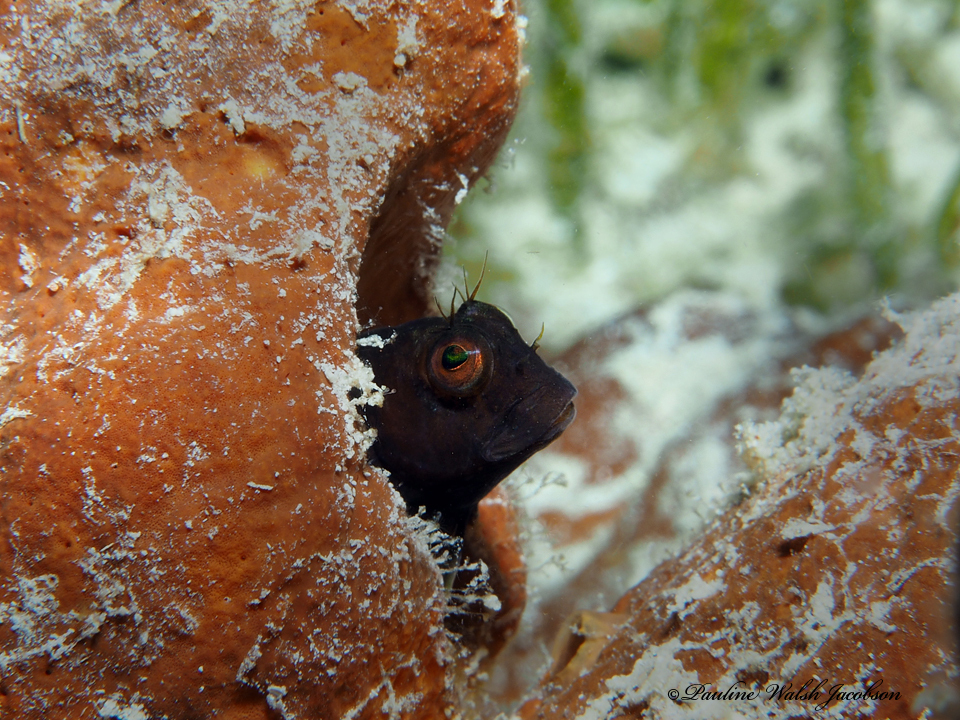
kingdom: Animalia
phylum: Chordata
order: Perciformes
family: Blenniidae
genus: Parablennius
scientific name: Parablennius marmoreus
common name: Seaweed blenny
